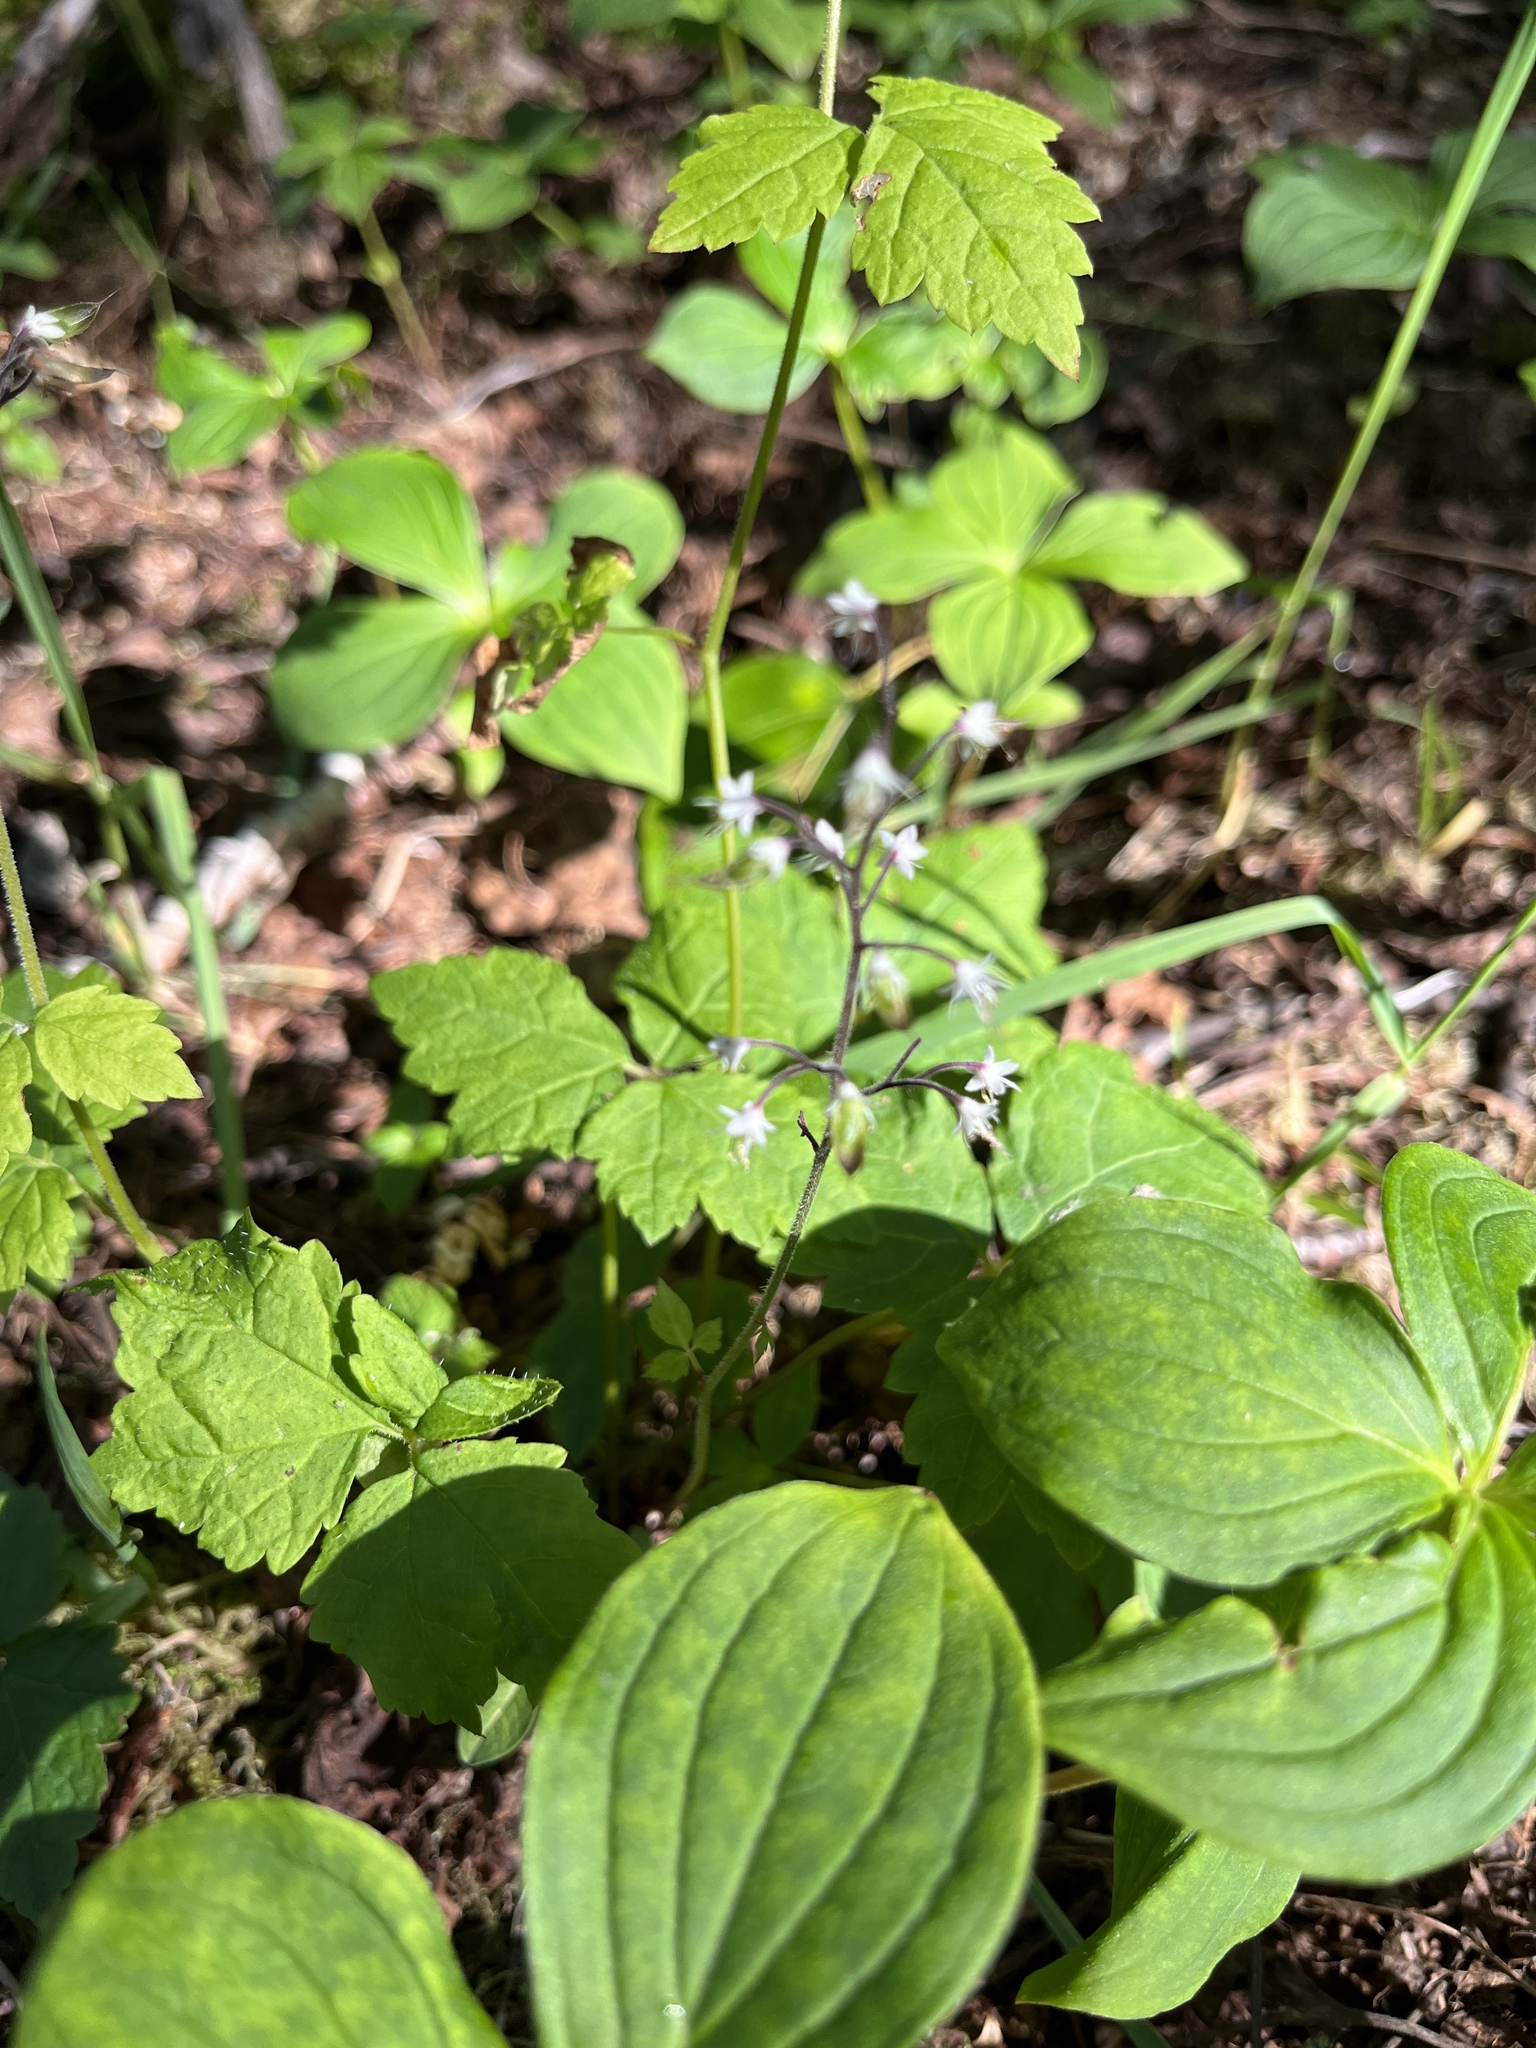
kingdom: Plantae
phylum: Tracheophyta
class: Magnoliopsida
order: Saxifragales
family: Saxifragaceae
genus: Tiarella
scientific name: Tiarella trifoliata
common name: Sugar-scoop
